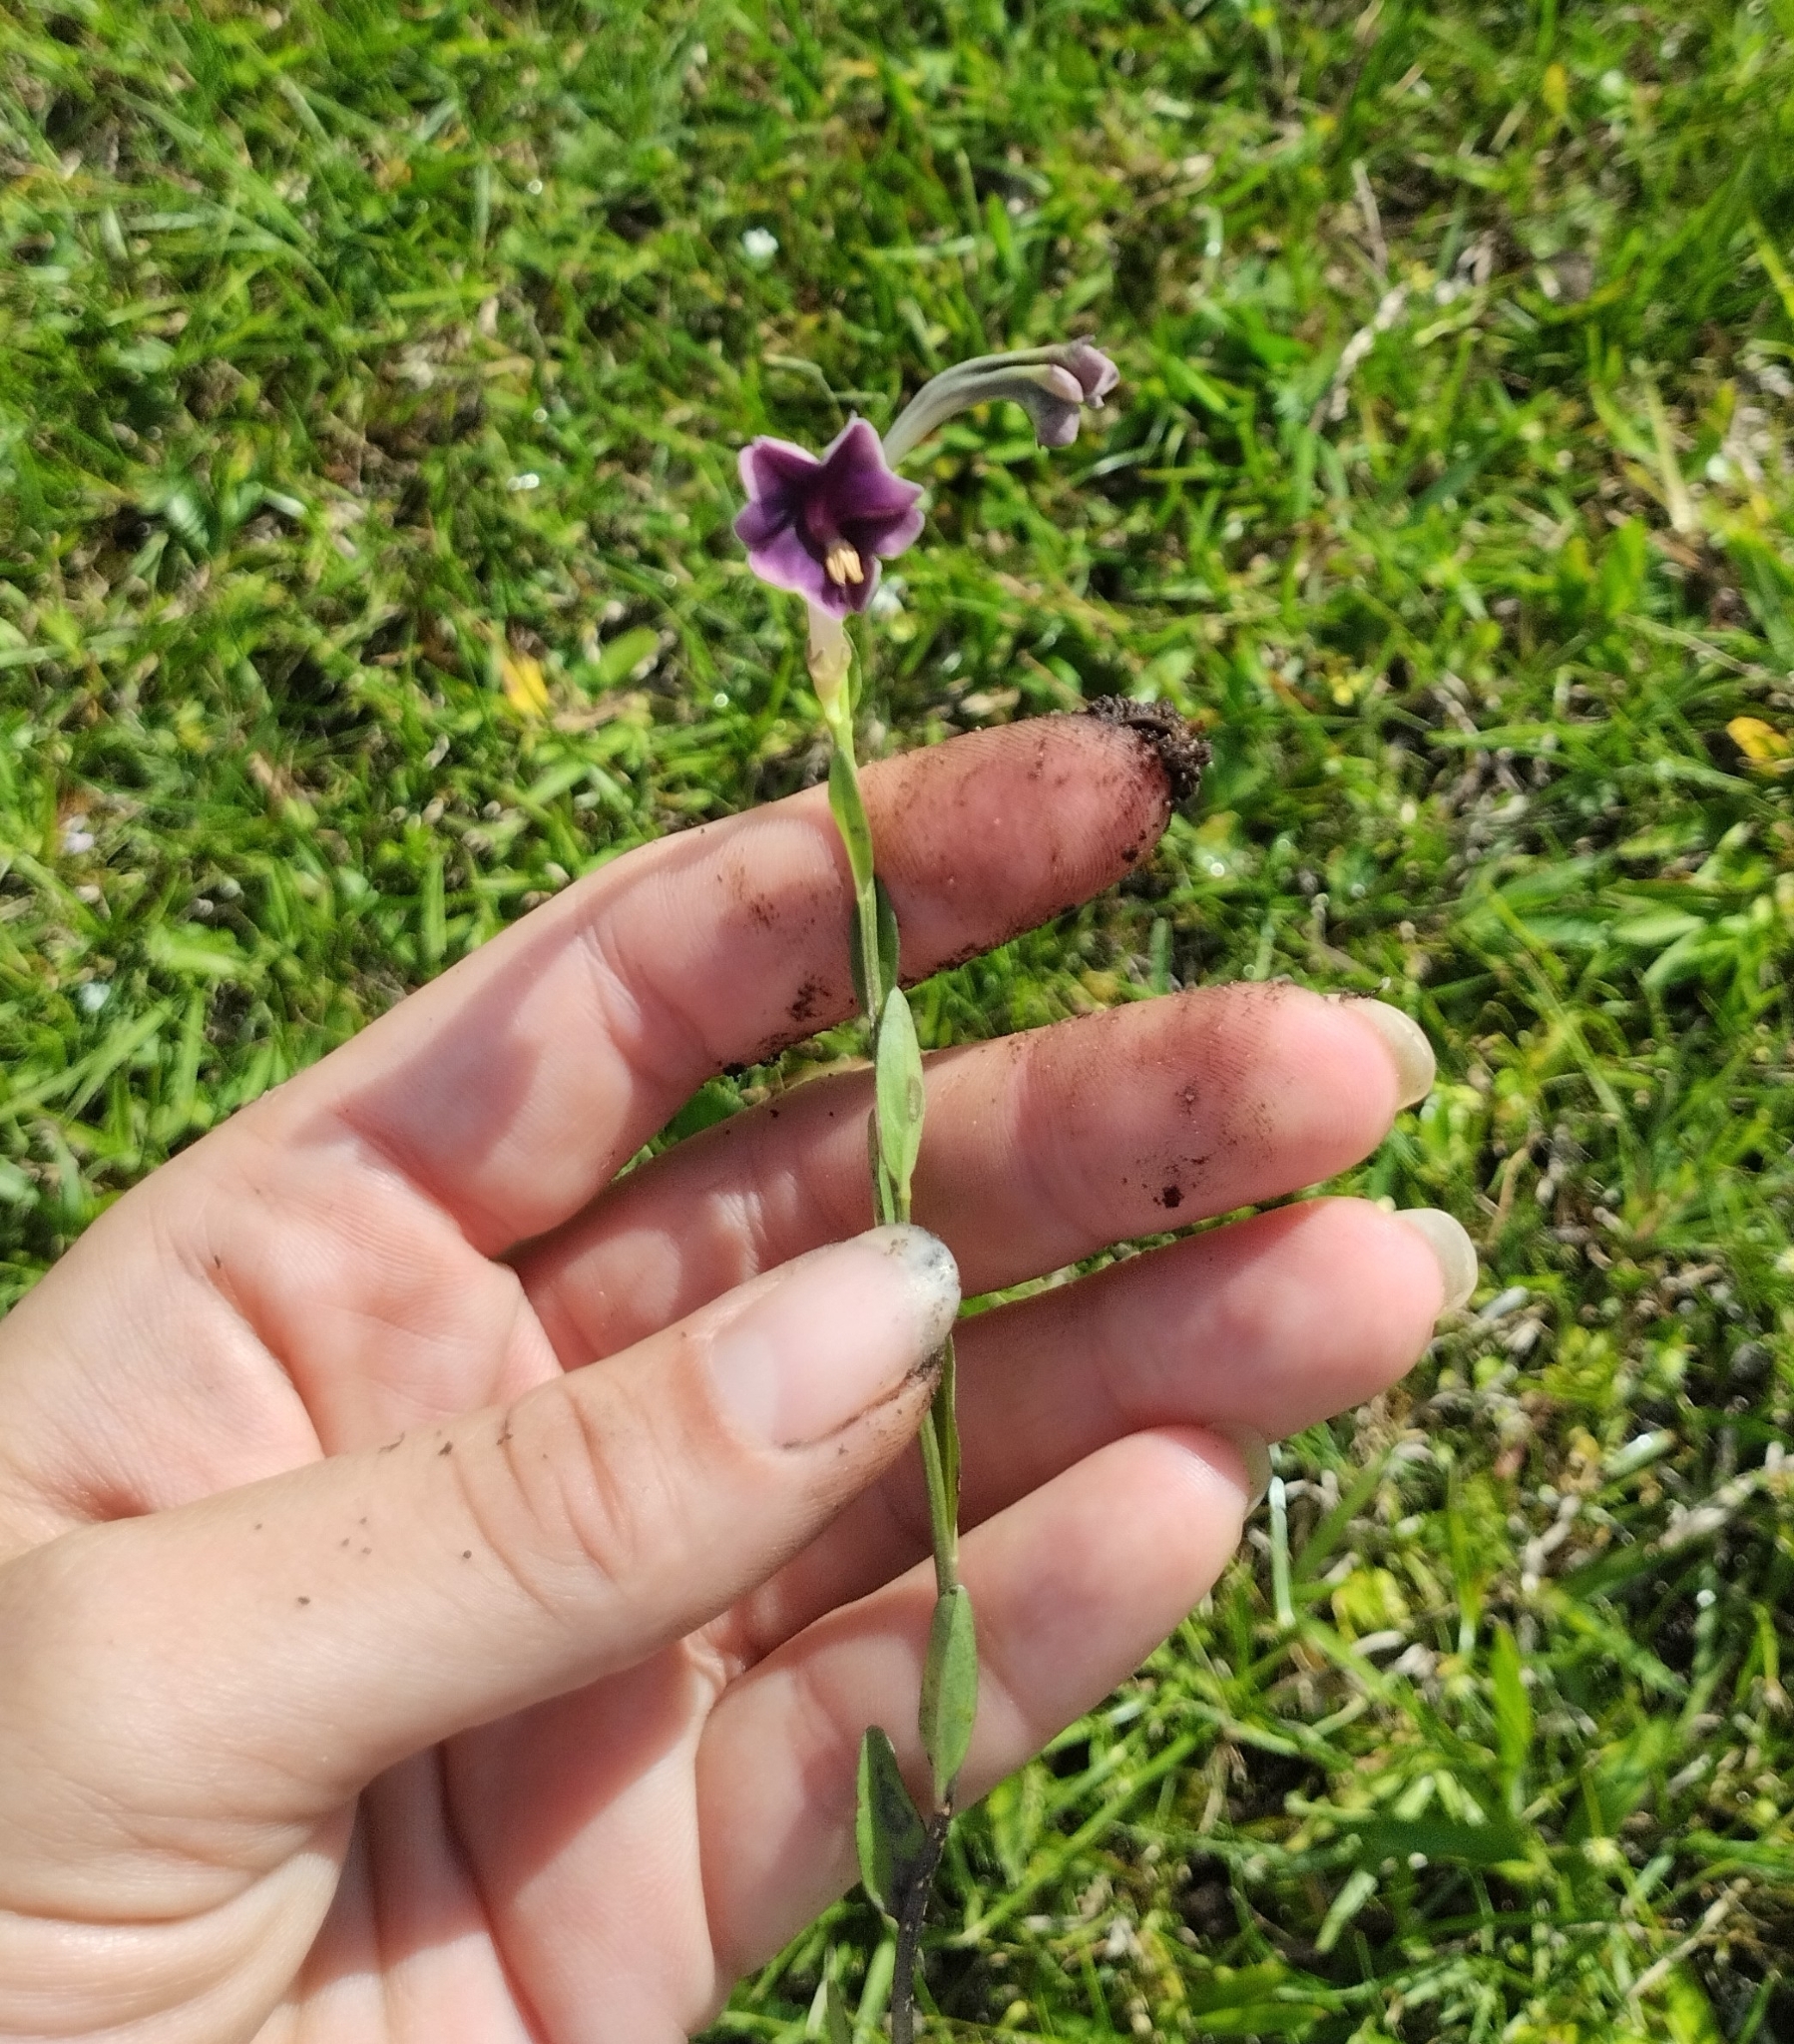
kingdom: Plantae
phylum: Tracheophyta
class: Magnoliopsida
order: Solanales
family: Solanaceae
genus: Schwenckia
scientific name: Schwenckia curviflora
